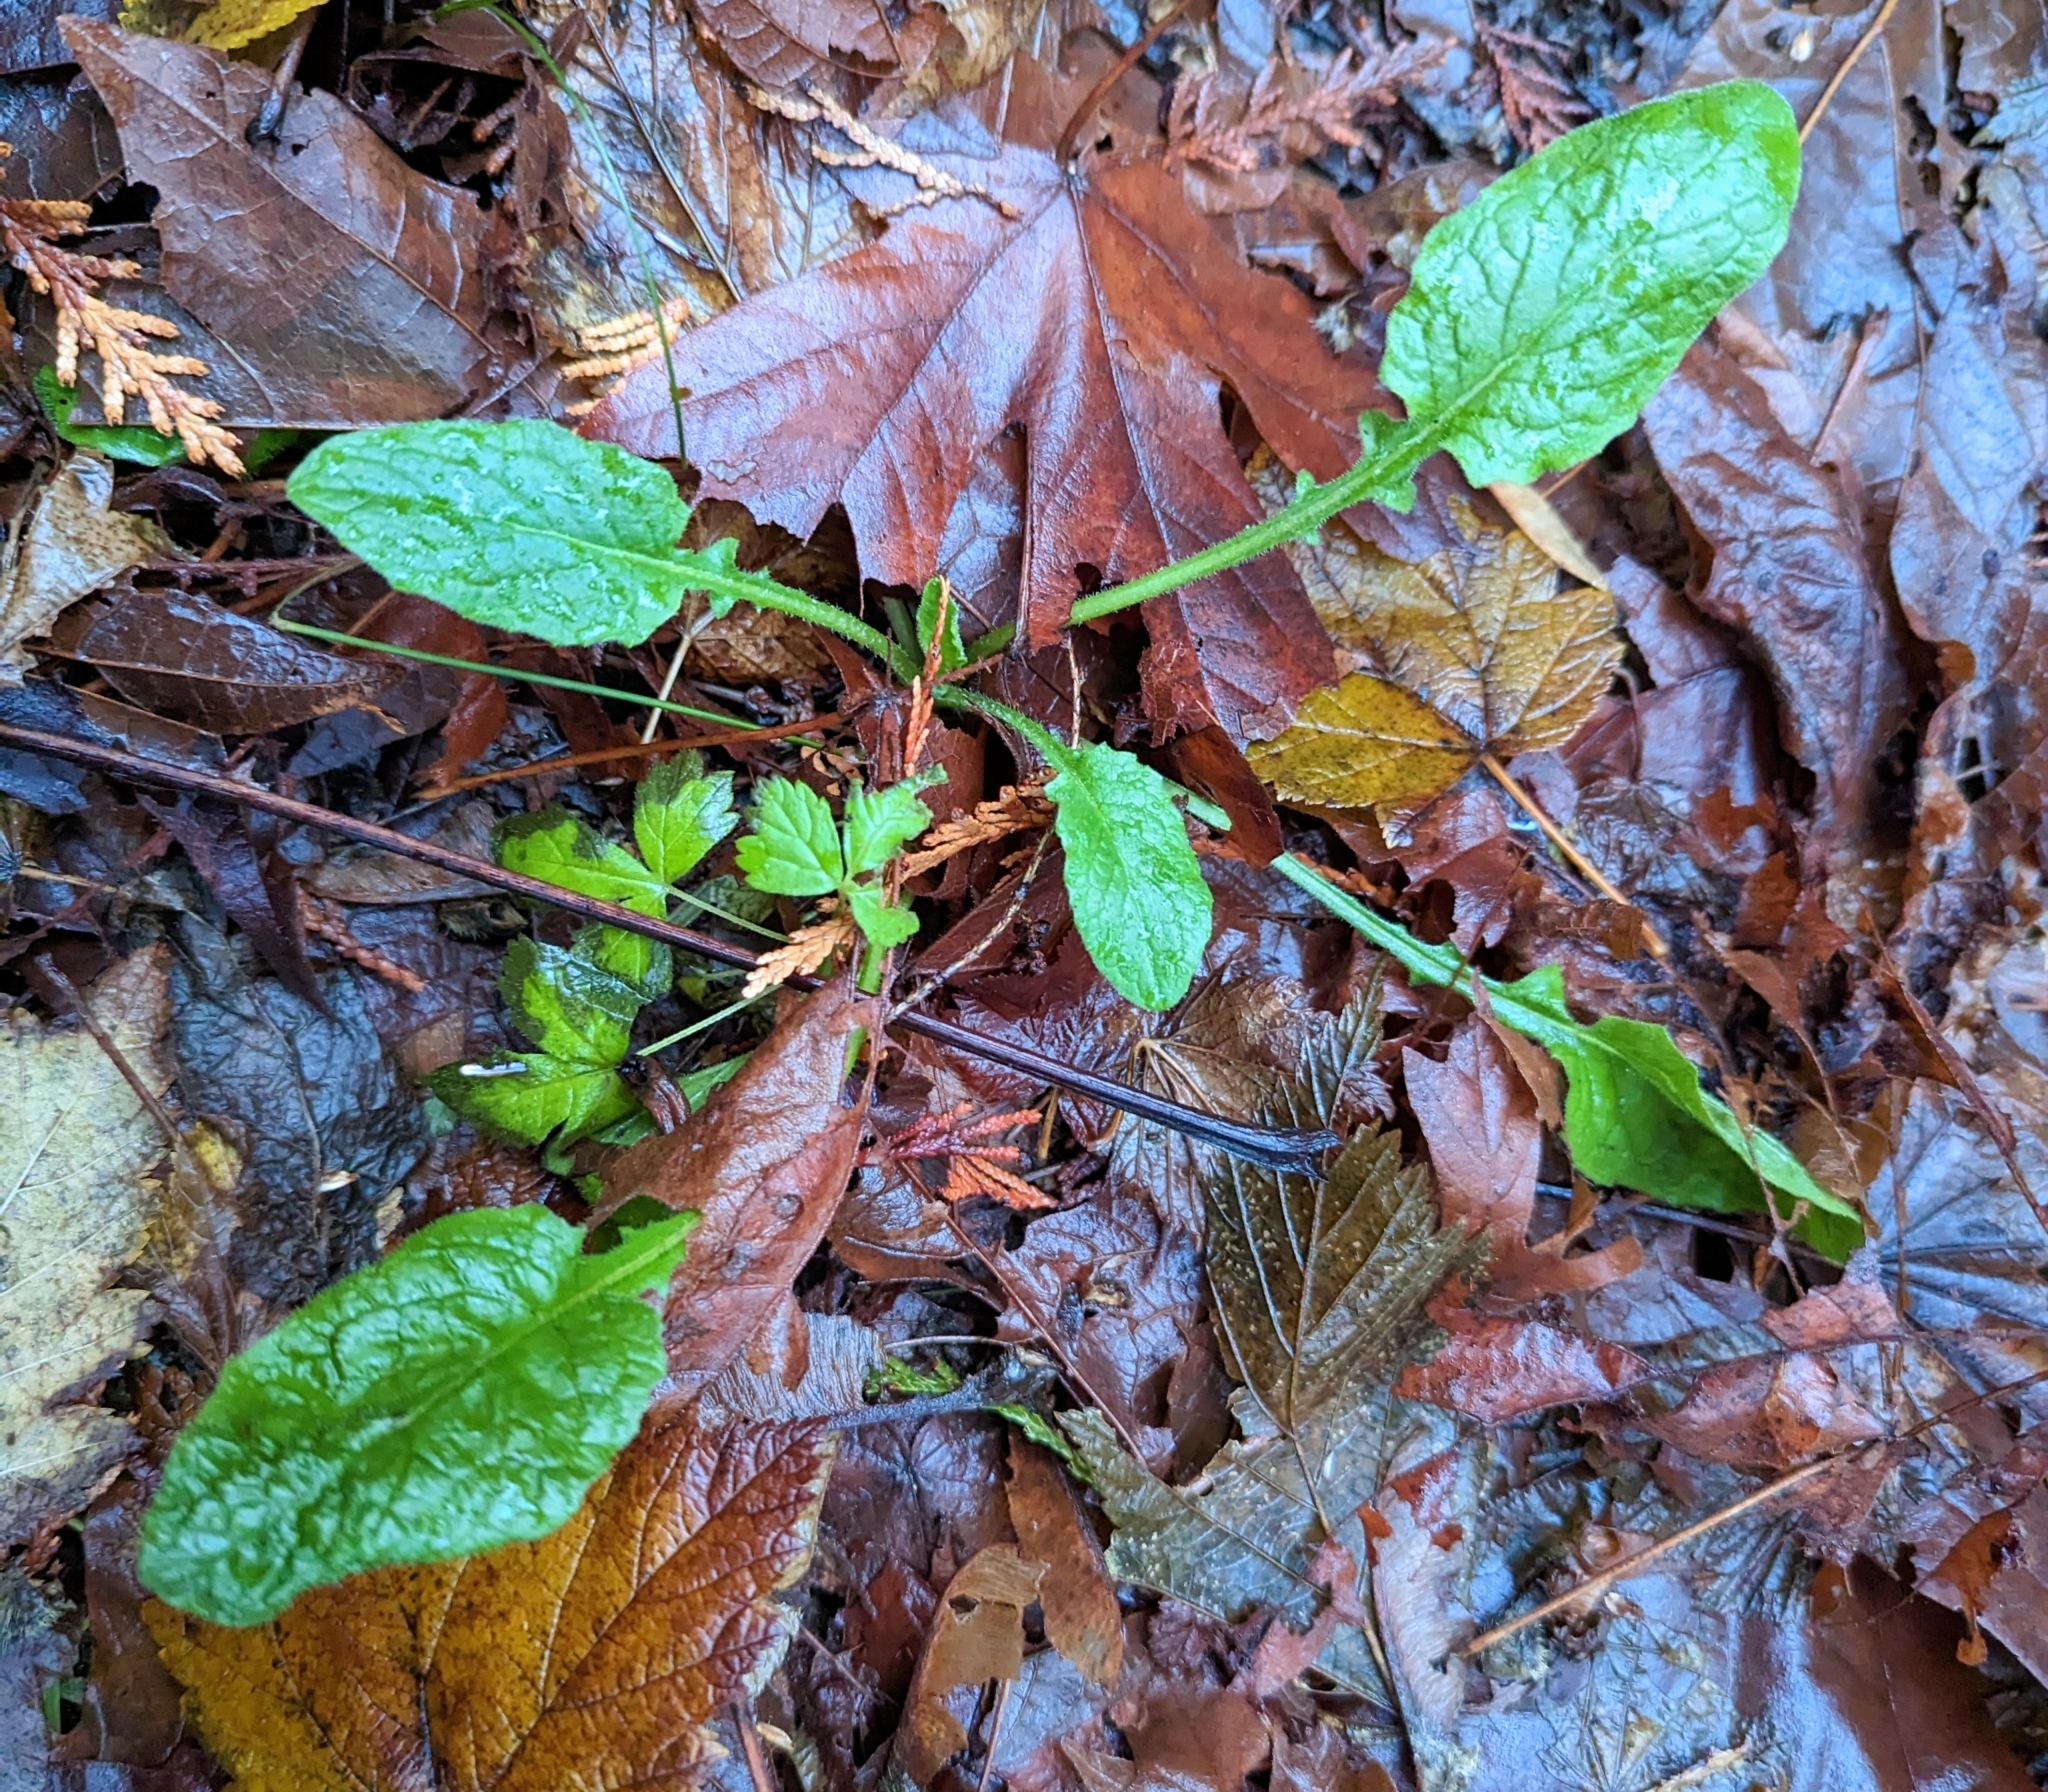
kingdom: Plantae
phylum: Tracheophyta
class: Magnoliopsida
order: Asterales
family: Asteraceae
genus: Lapsana
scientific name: Lapsana communis
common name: Nipplewort
